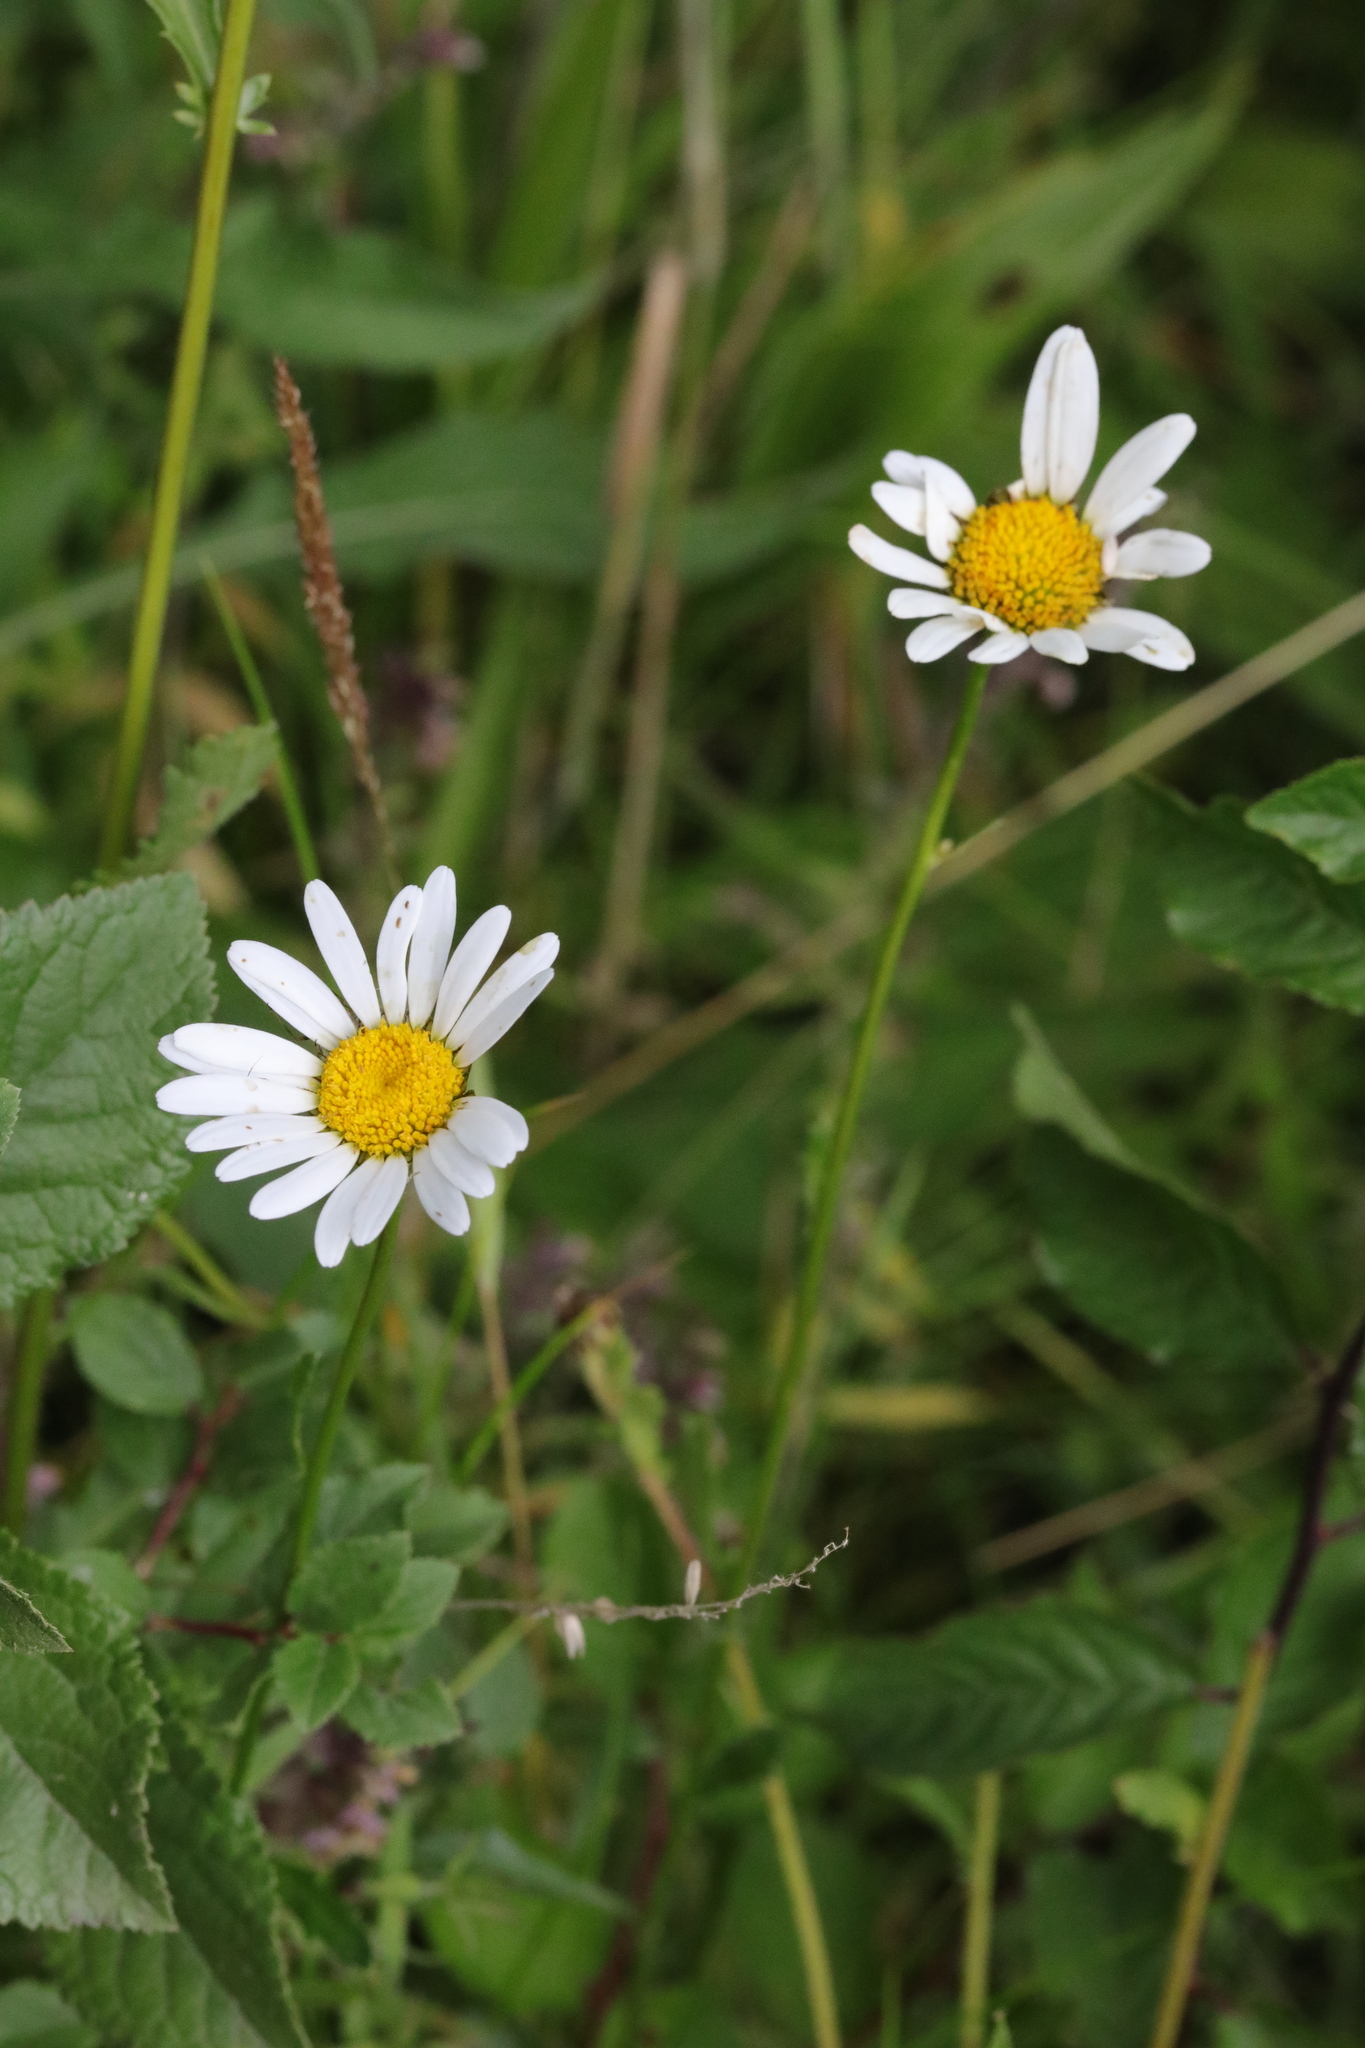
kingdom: Plantae
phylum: Tracheophyta
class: Magnoliopsida
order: Asterales
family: Asteraceae
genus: Leucanthemum
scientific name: Leucanthemum vulgare
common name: Oxeye daisy
